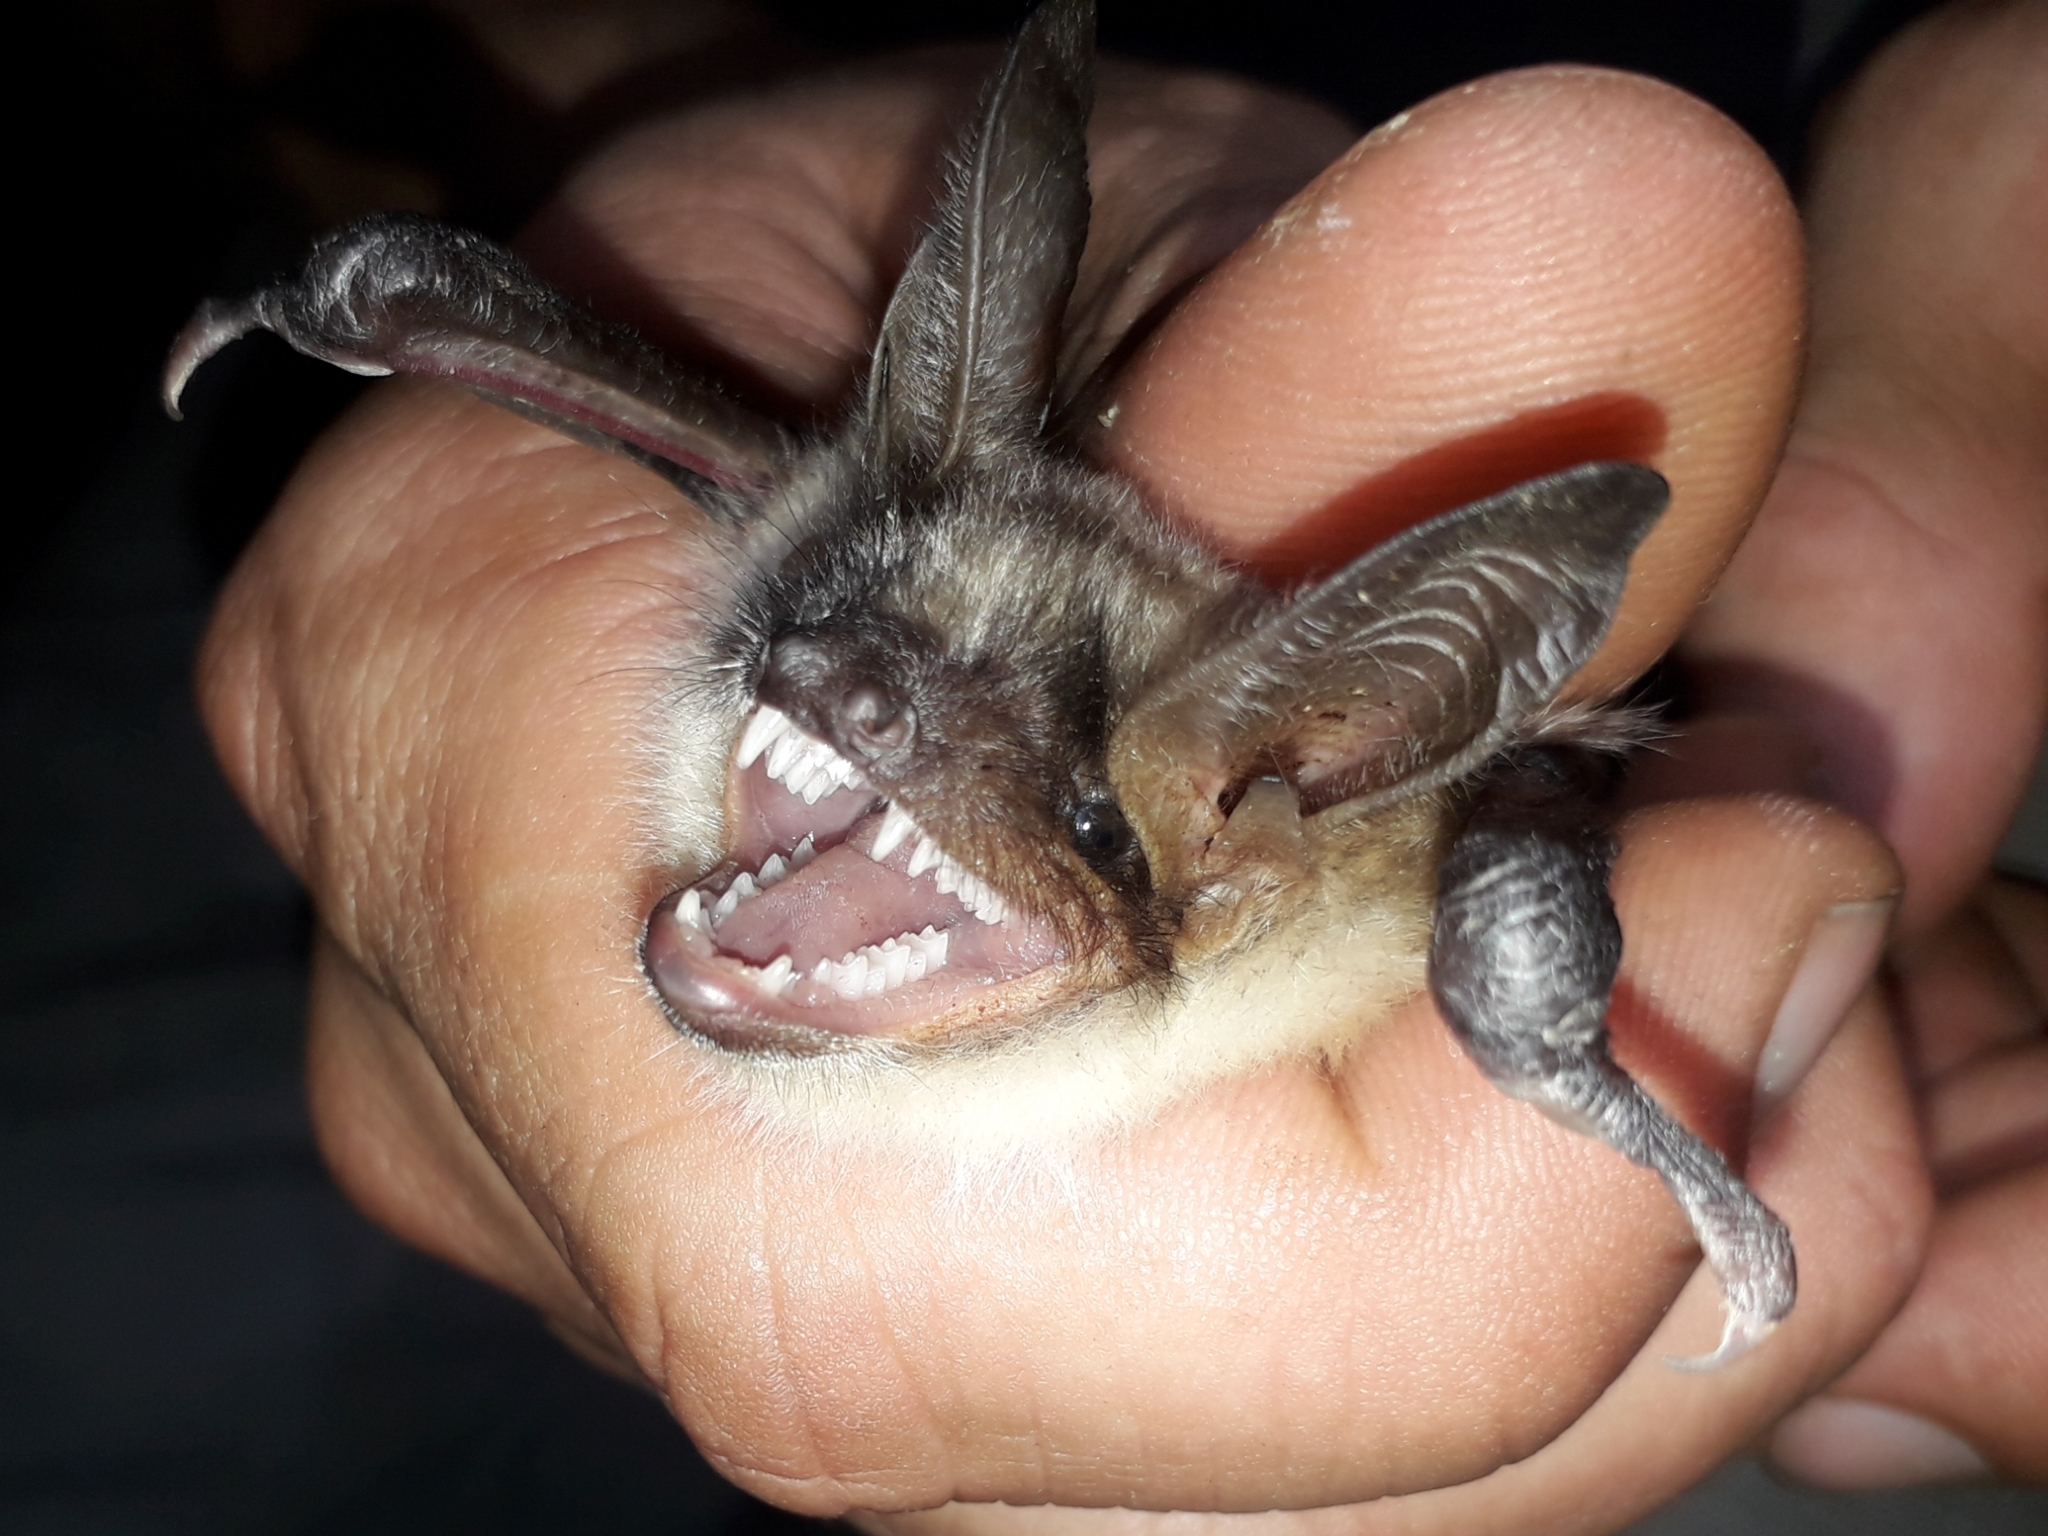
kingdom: Animalia
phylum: Chordata
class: Mammalia
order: Chiroptera
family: Vespertilionidae
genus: Myotis
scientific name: Myotis myotis
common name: Greater mouse-eared bat
